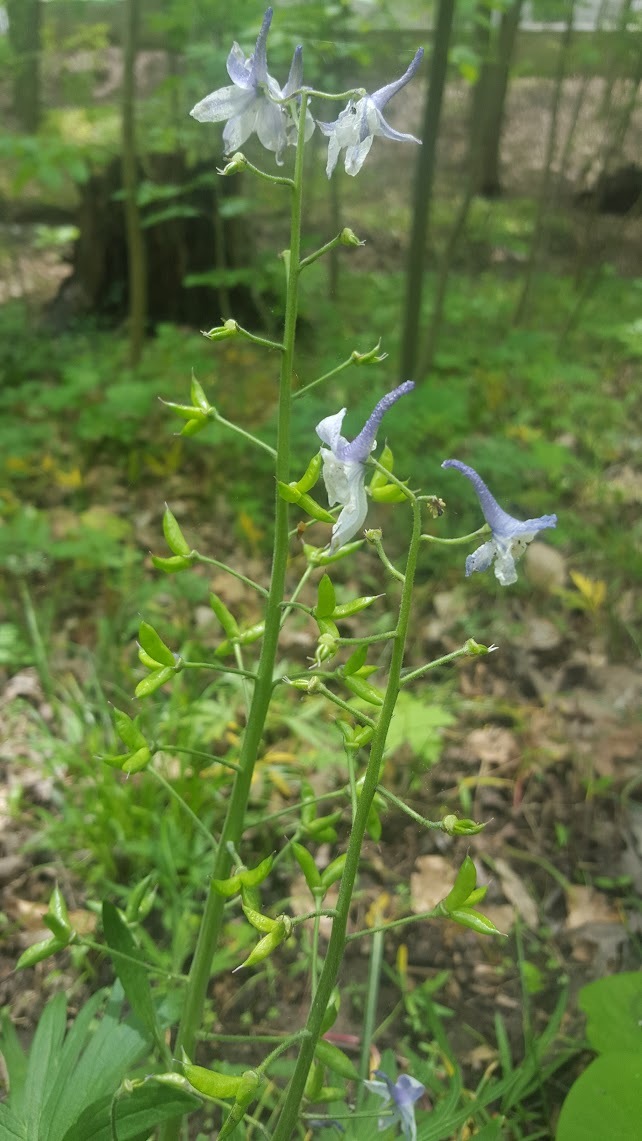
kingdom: Plantae
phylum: Tracheophyta
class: Magnoliopsida
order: Ranunculales
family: Ranunculaceae
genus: Delphinium
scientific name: Delphinium tricorne
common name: Dwarf larkspur
